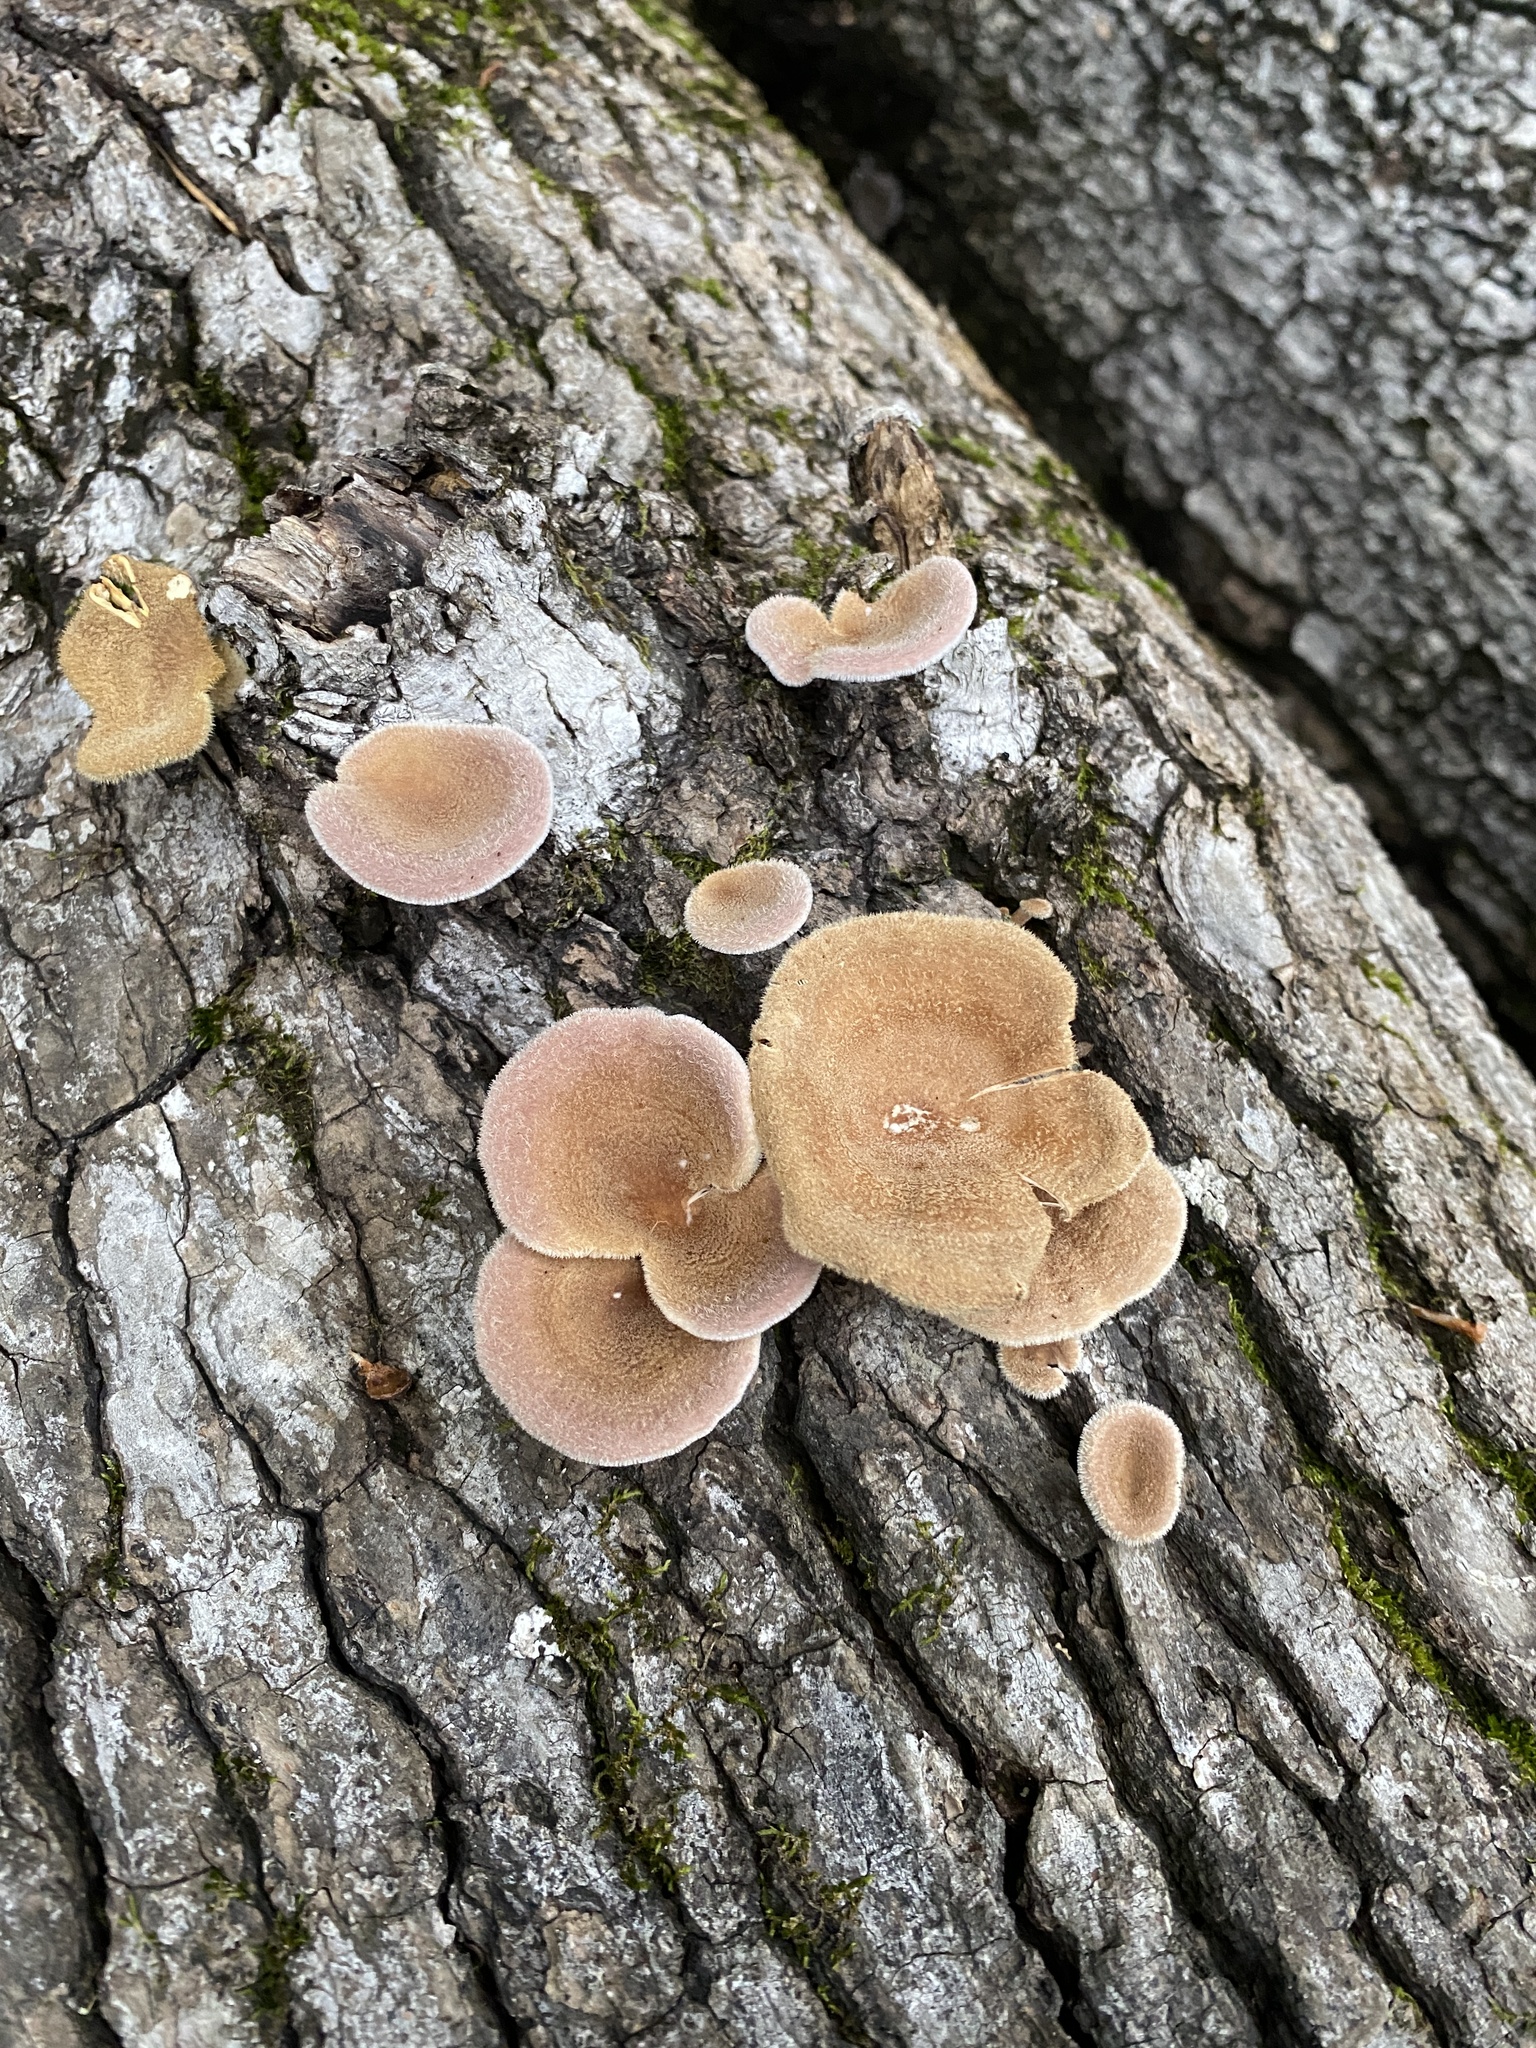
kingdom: Fungi
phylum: Basidiomycota
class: Agaricomycetes
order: Polyporales
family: Panaceae
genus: Panus
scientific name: Panus neostrigosus
